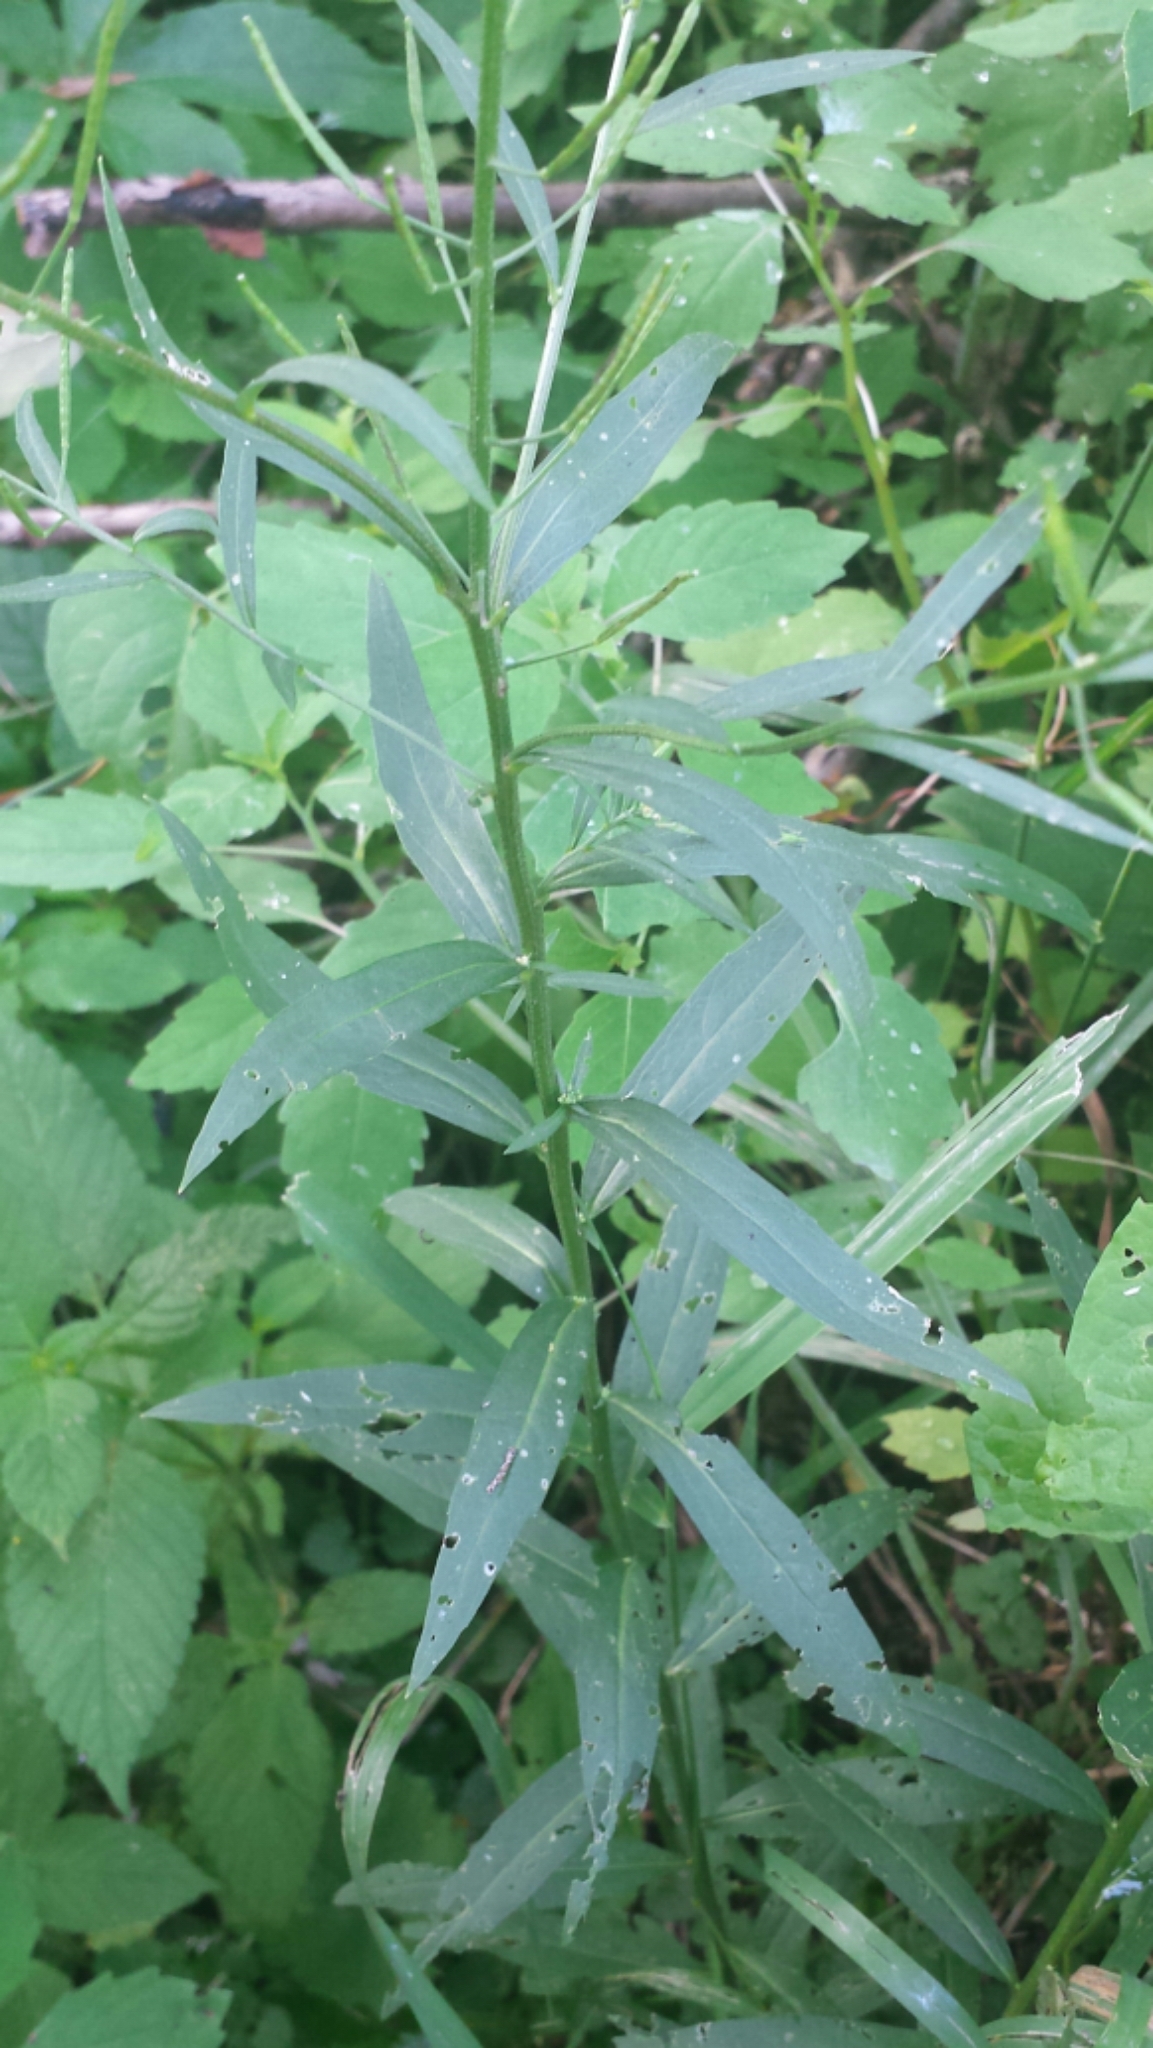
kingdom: Plantae
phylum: Tracheophyta
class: Magnoliopsida
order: Brassicales
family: Brassicaceae
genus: Erysimum
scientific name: Erysimum cheiranthoides
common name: Treacle mustard
